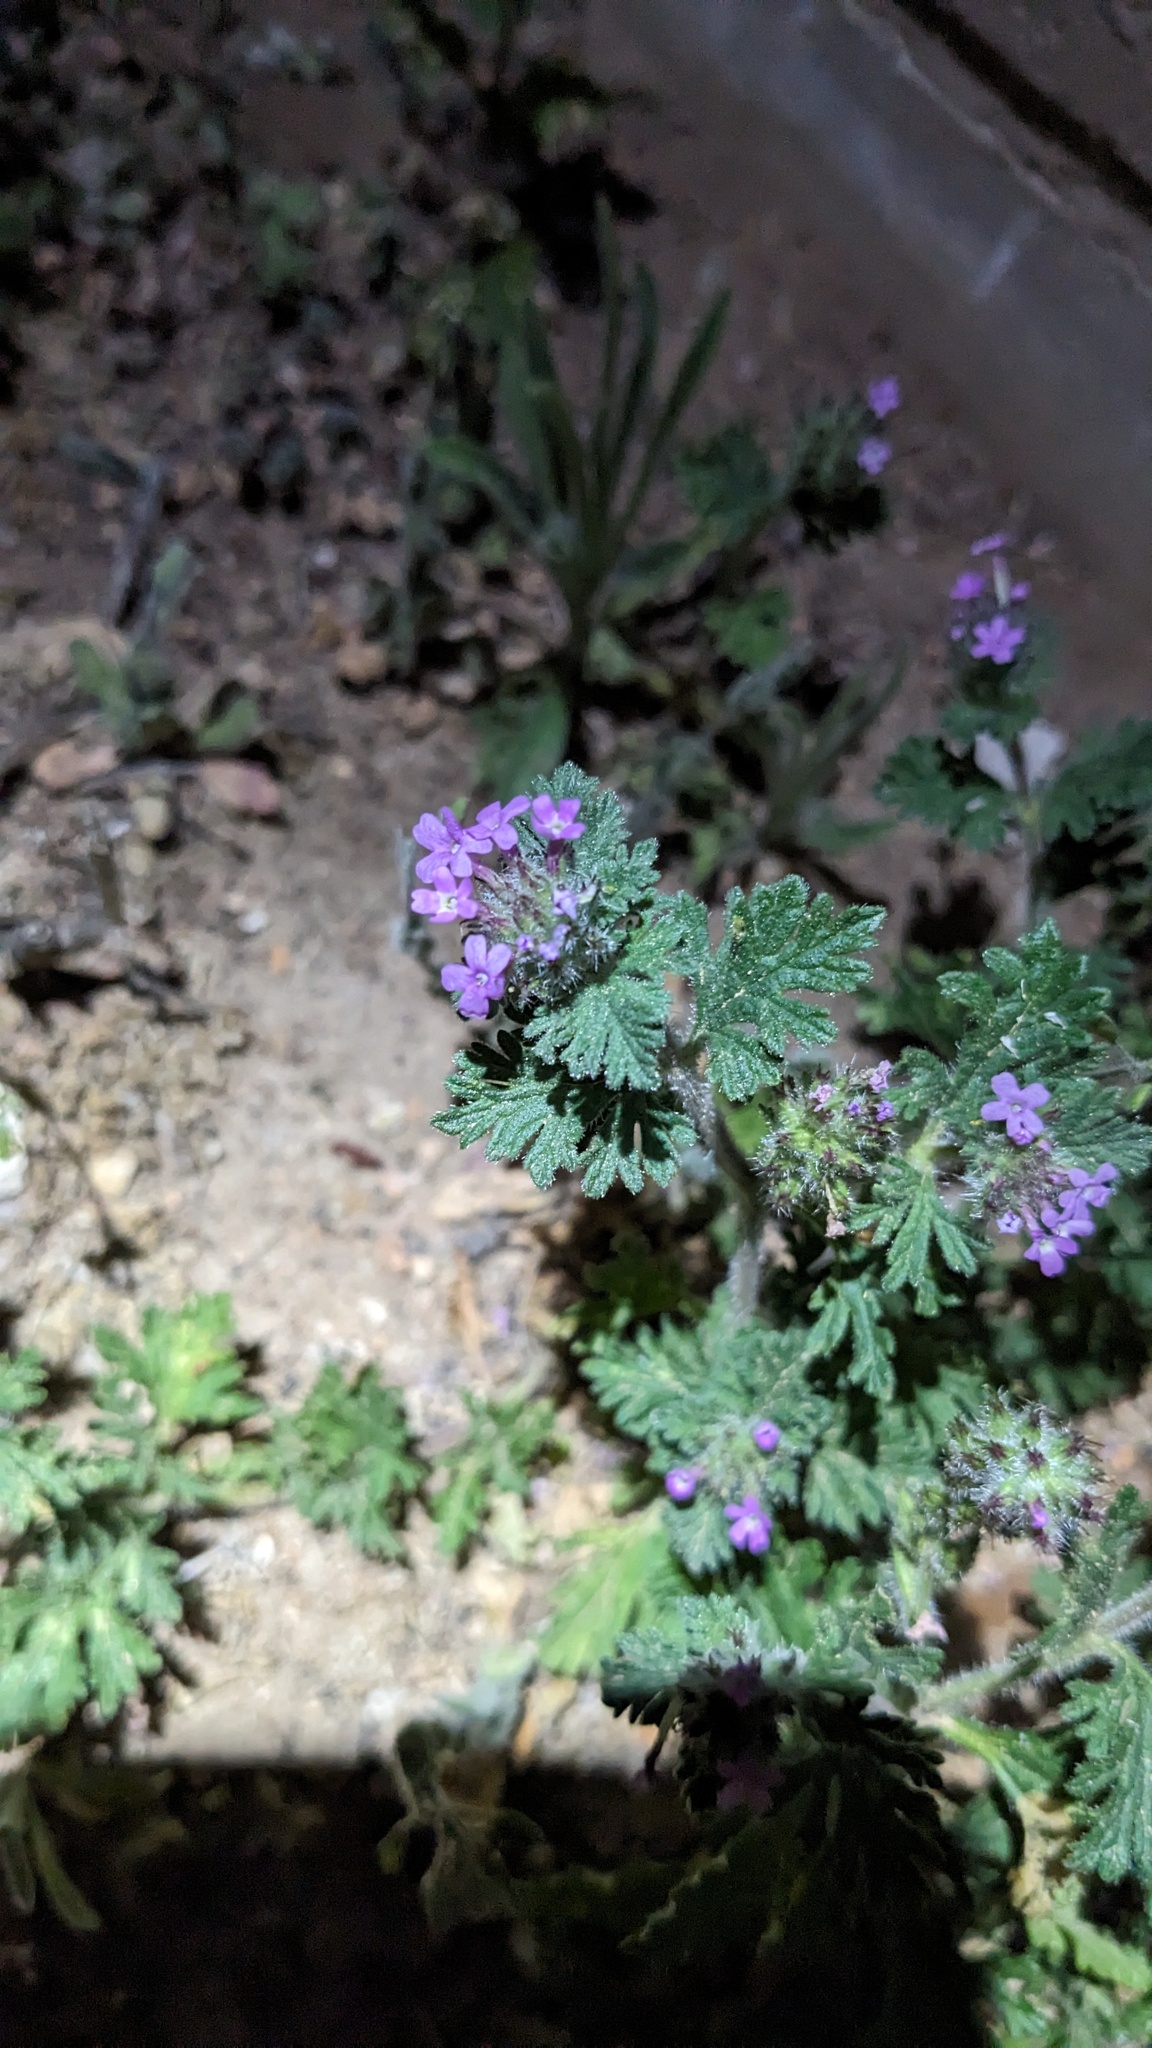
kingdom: Plantae
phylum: Tracheophyta
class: Magnoliopsida
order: Lamiales
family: Verbenaceae
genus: Verbena
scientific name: Verbena pumila
